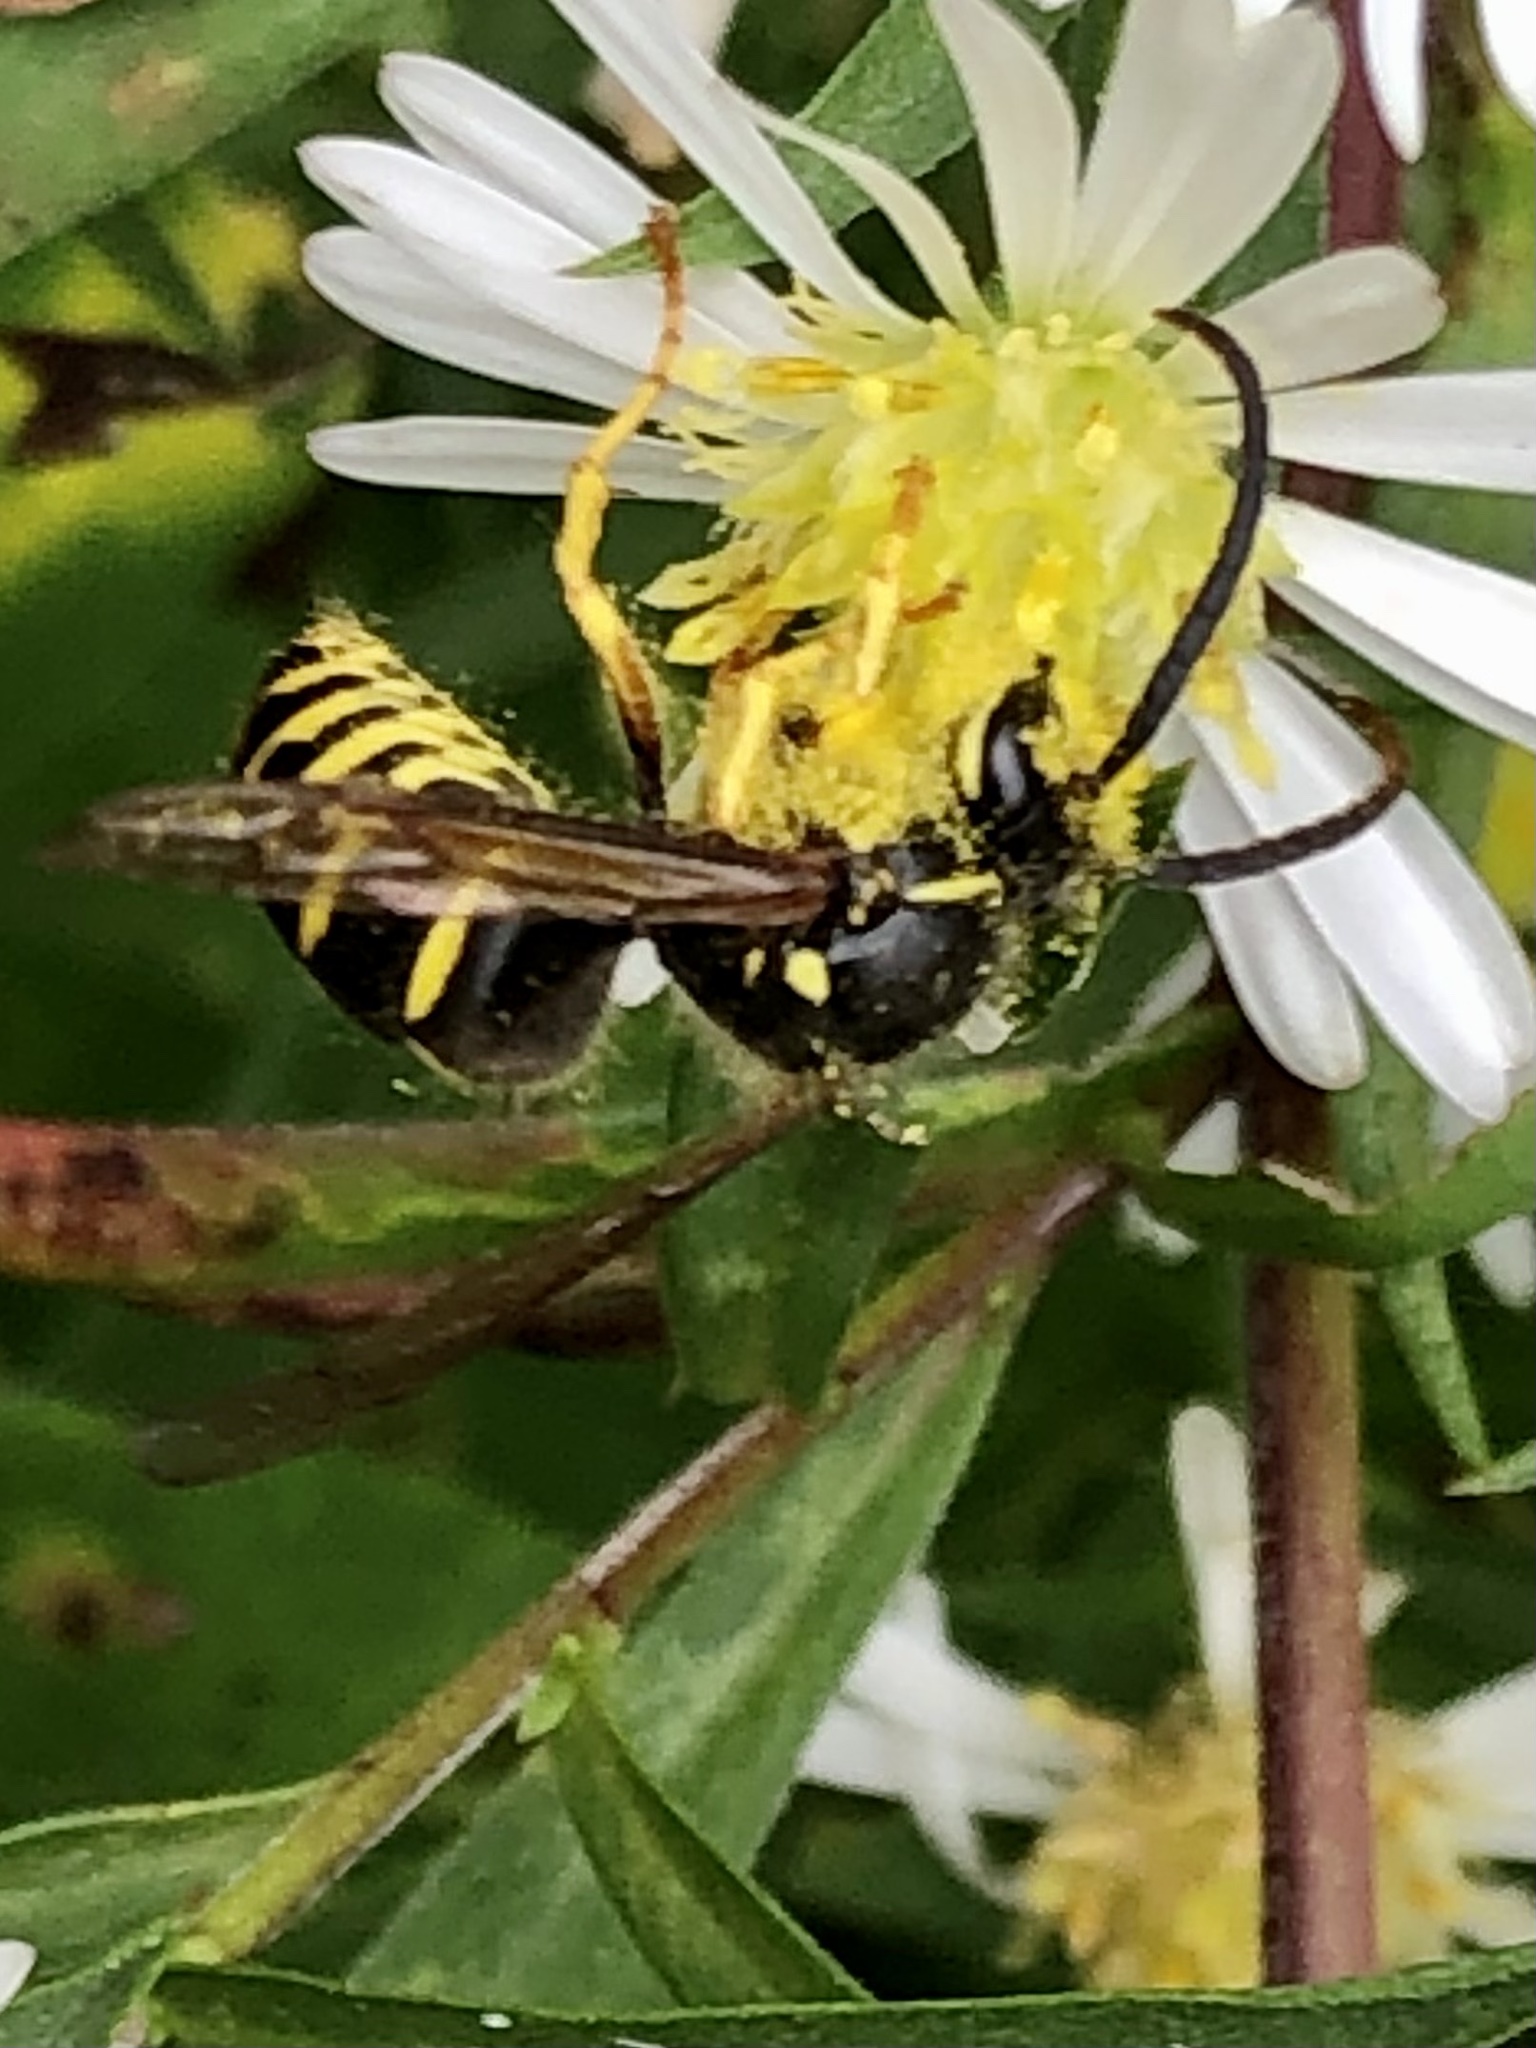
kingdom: Animalia
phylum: Arthropoda
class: Insecta
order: Hymenoptera
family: Vespidae
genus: Dolichovespula
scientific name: Dolichovespula arenaria
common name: Aerial yellowjacket
